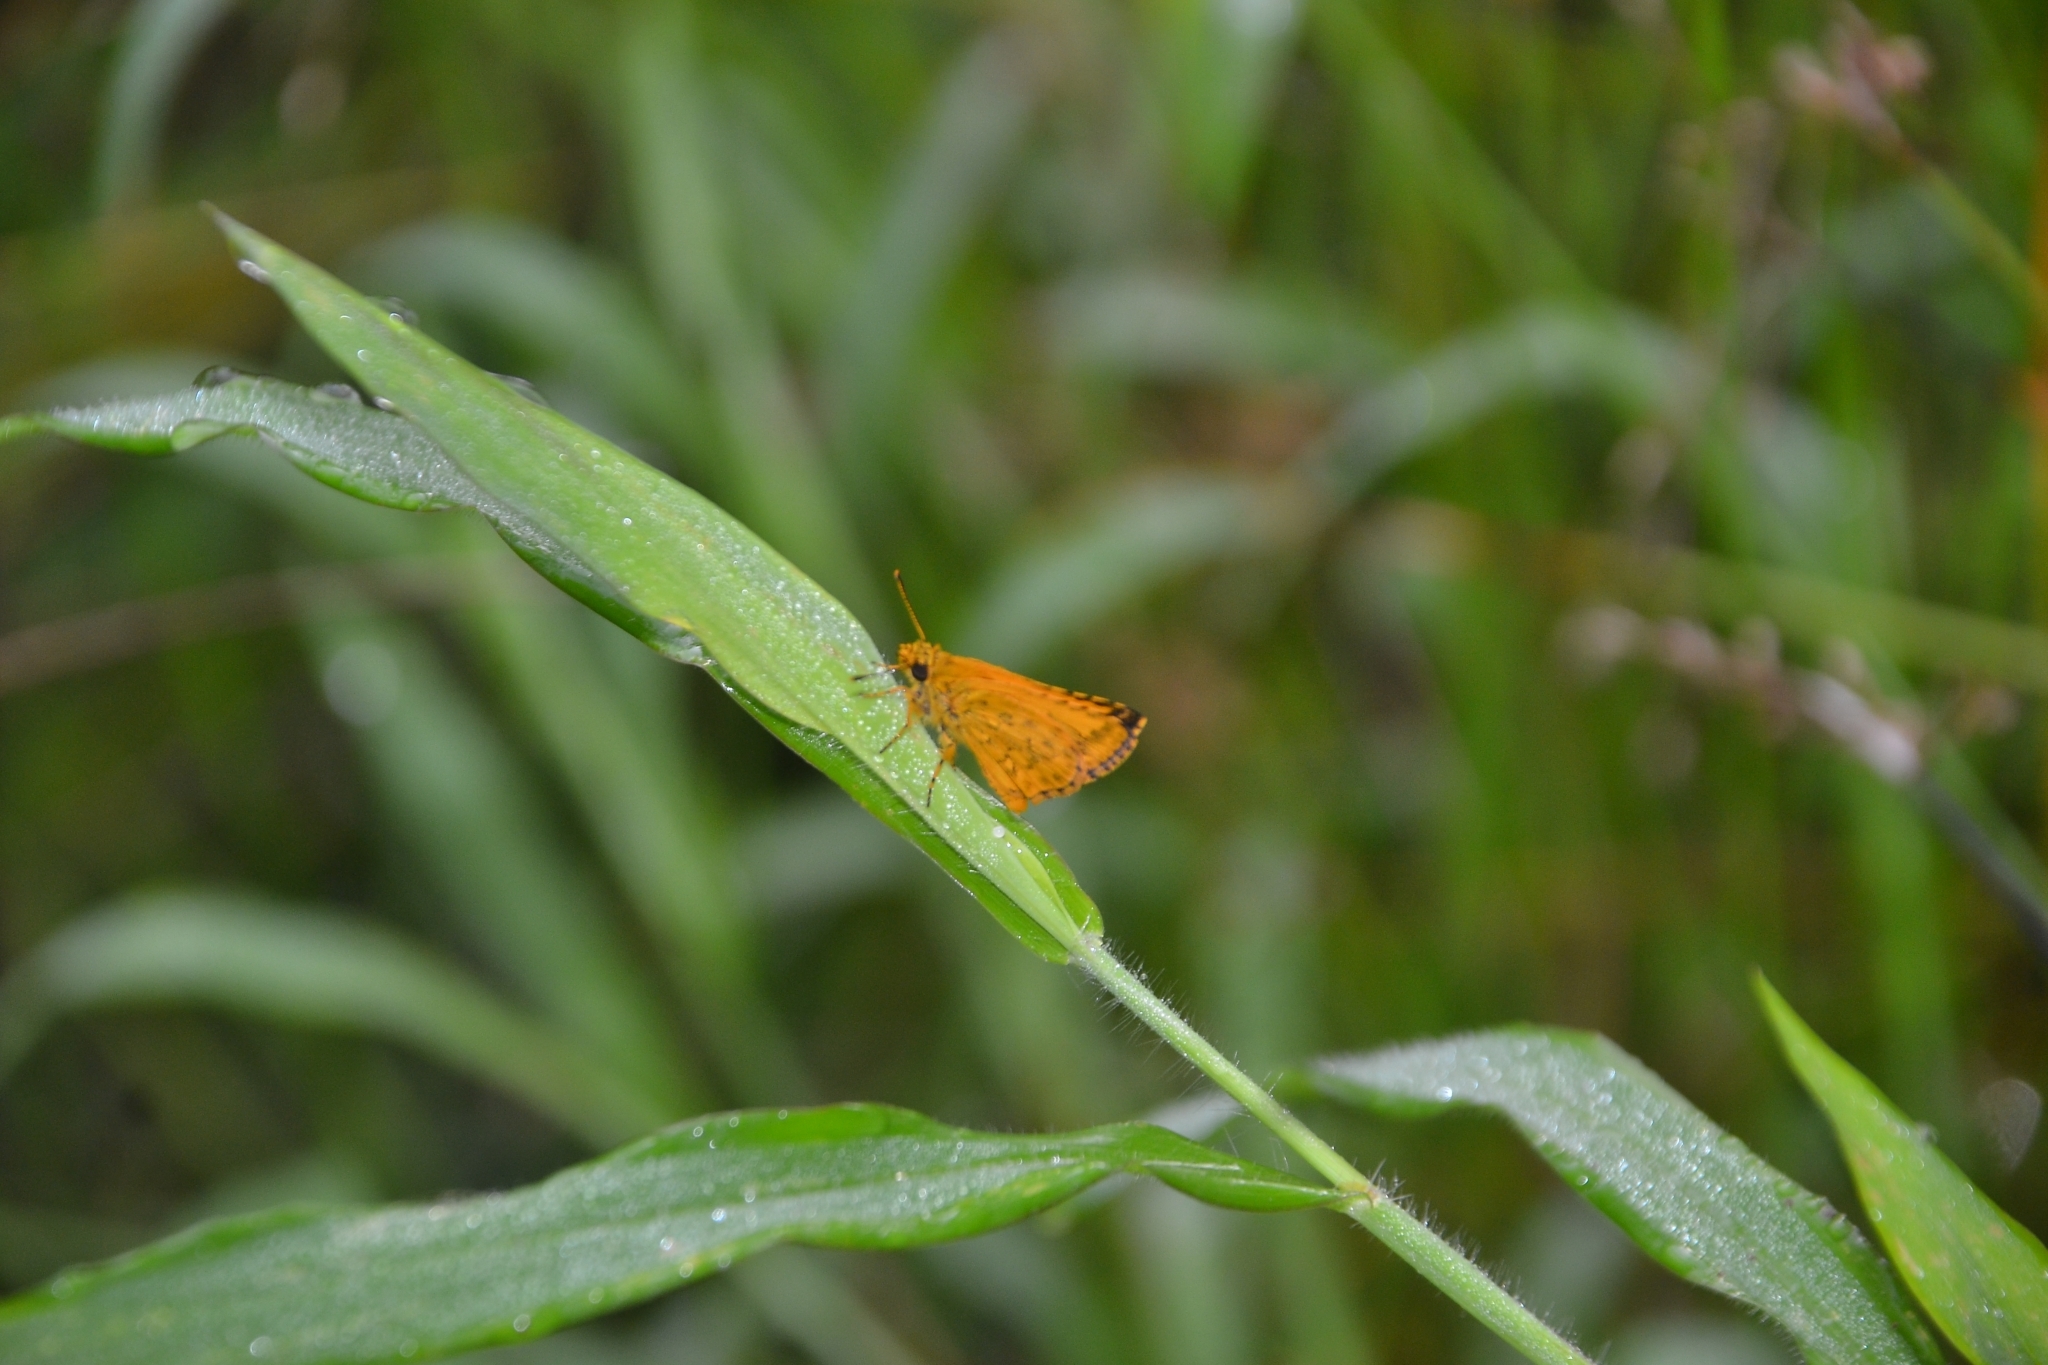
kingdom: Animalia
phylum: Arthropoda
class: Insecta
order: Lepidoptera
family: Hesperiidae
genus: Ampittia
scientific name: Ampittia dioscorides
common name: Common bush hopper
